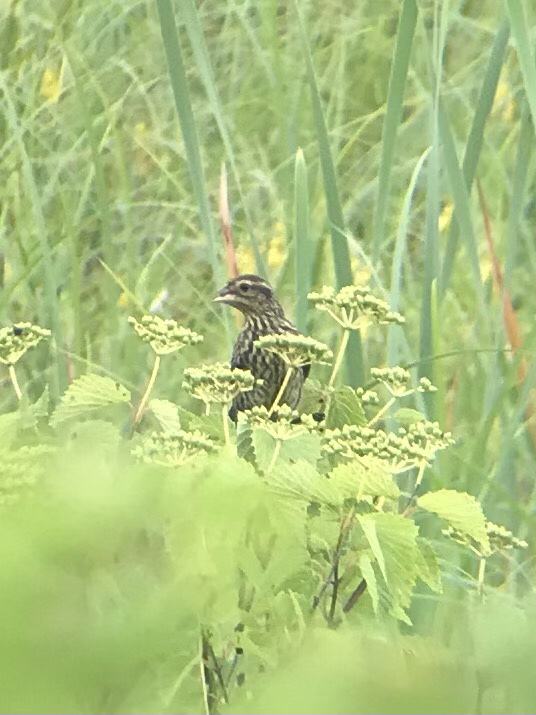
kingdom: Animalia
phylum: Chordata
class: Aves
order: Passeriformes
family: Icteridae
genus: Agelaius
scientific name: Agelaius phoeniceus
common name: Red-winged blackbird
